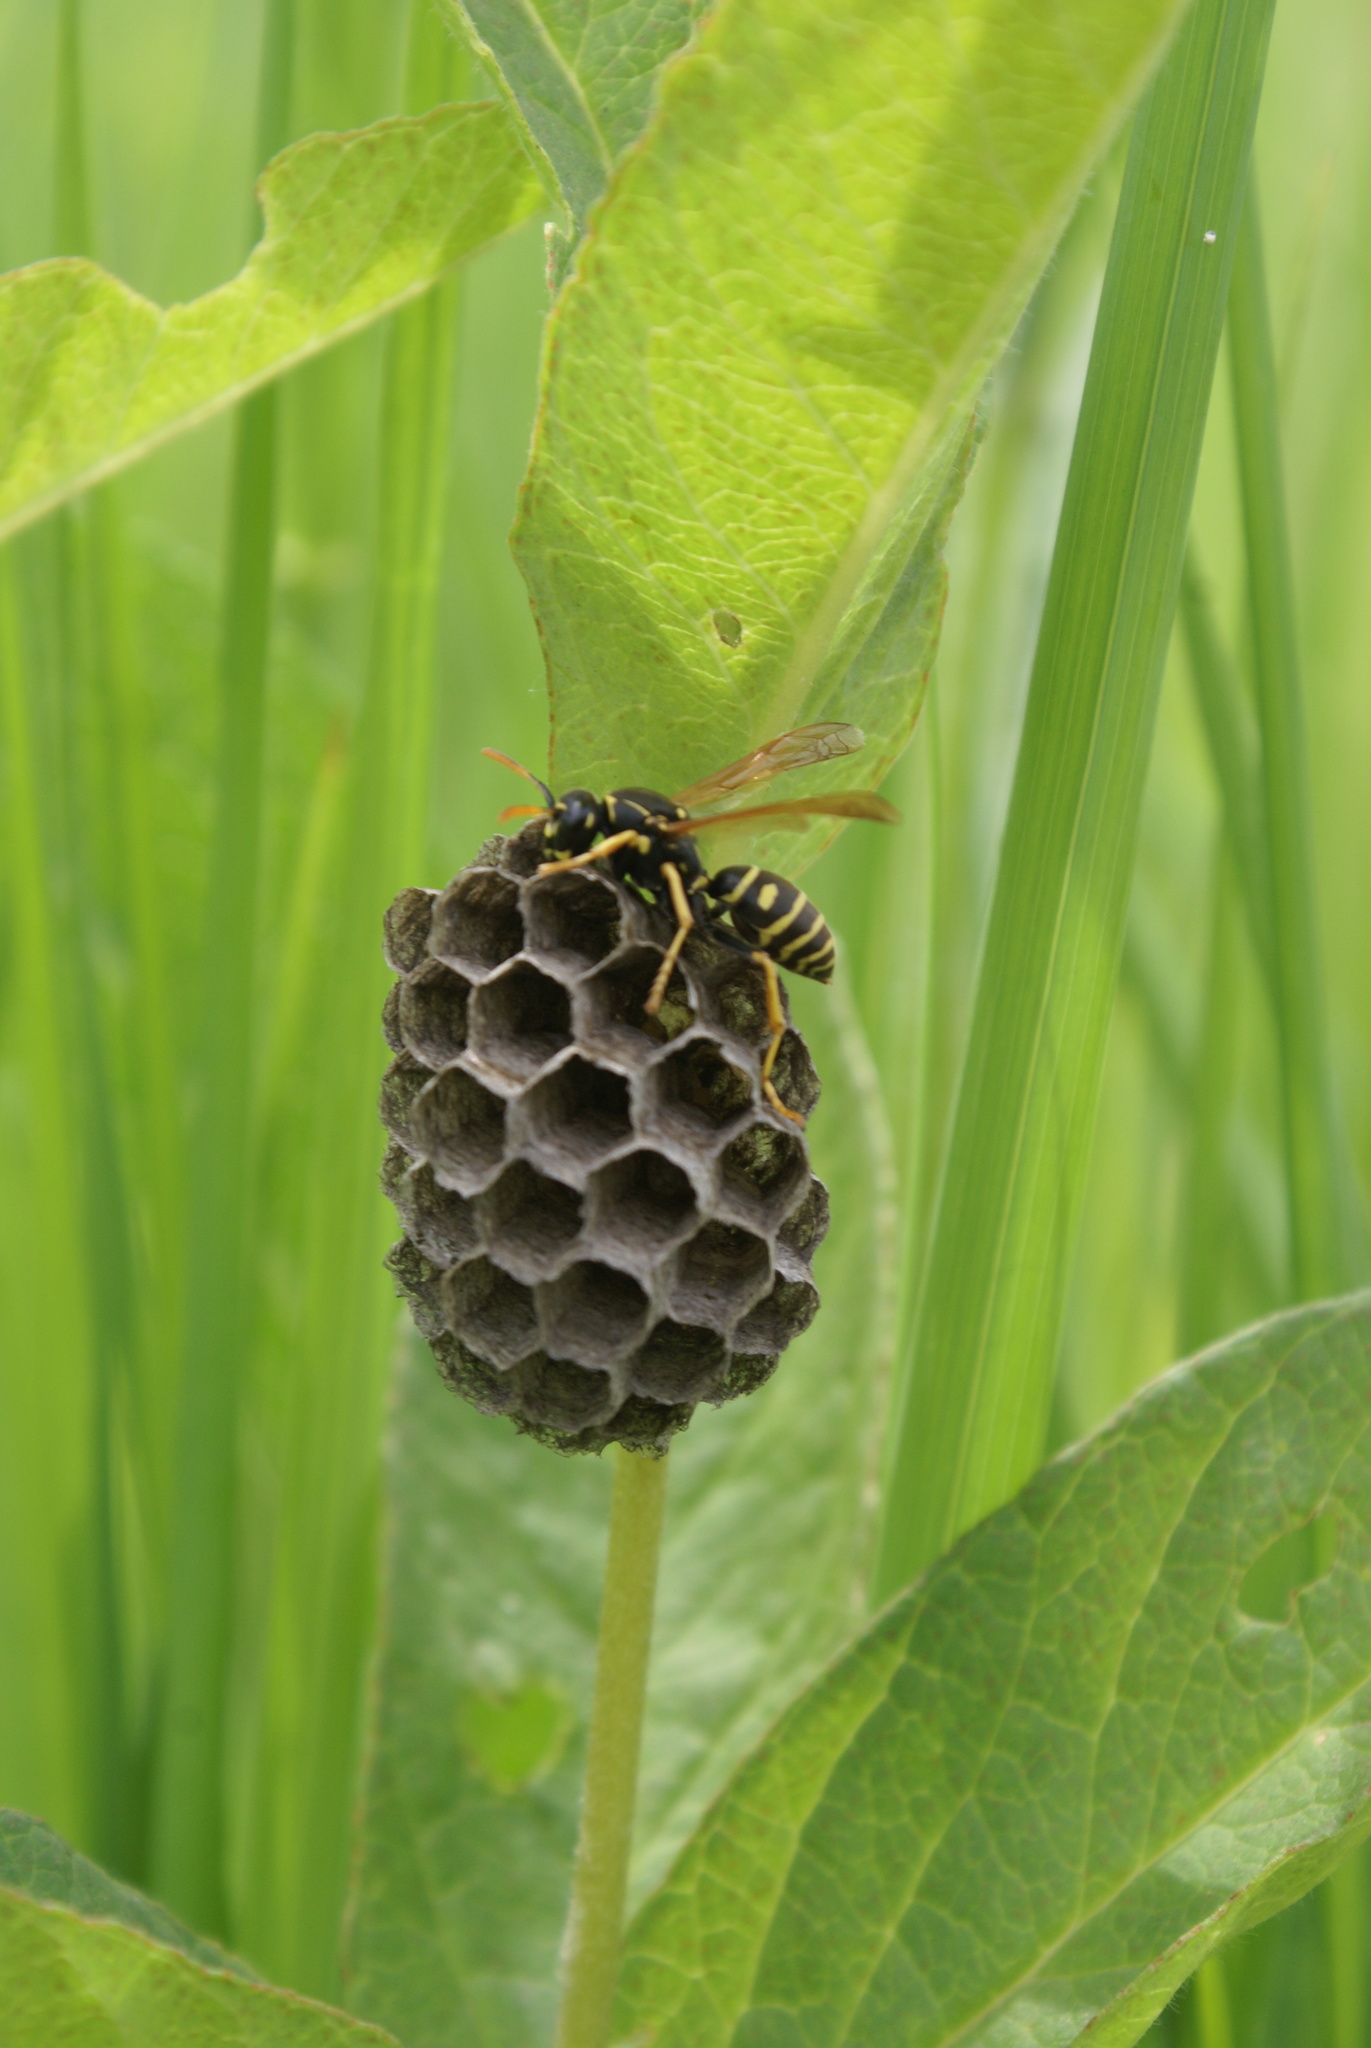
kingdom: Animalia
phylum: Arthropoda
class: Insecta
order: Hymenoptera
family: Eumenidae
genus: Polistes
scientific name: Polistes nimpha
